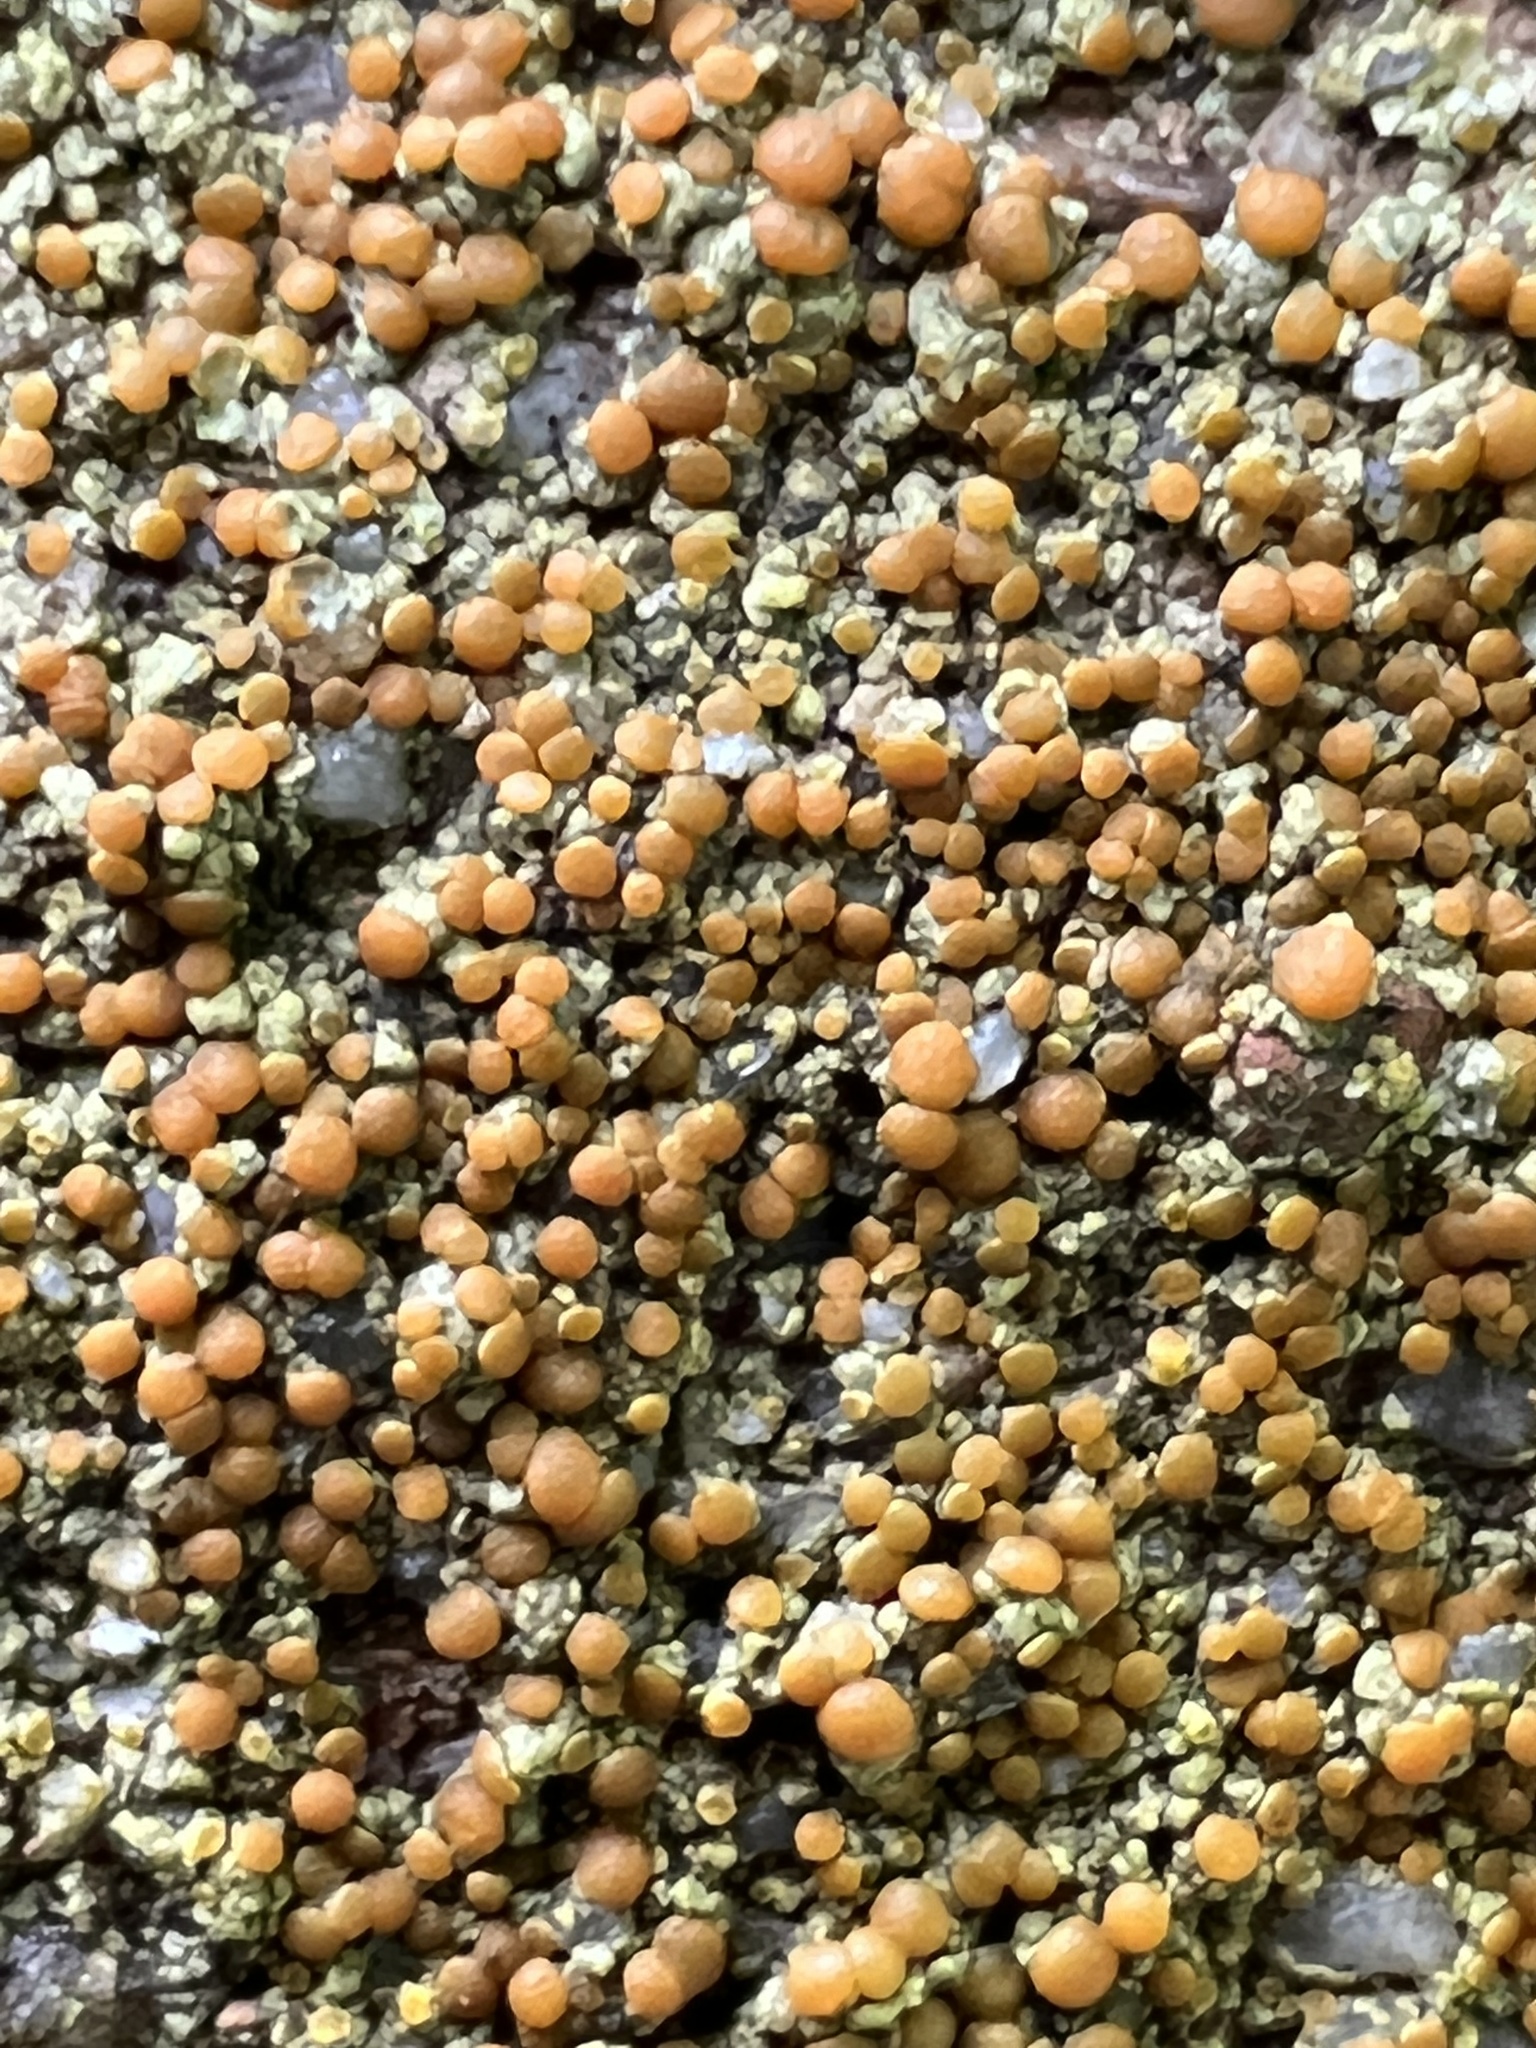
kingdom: Fungi
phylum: Ascomycota
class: Lecanoromycetes
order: Teloschistales
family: Teloschistaceae
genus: Gyalolechia
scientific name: Gyalolechia flavovirescens
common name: Sulphur firedot
